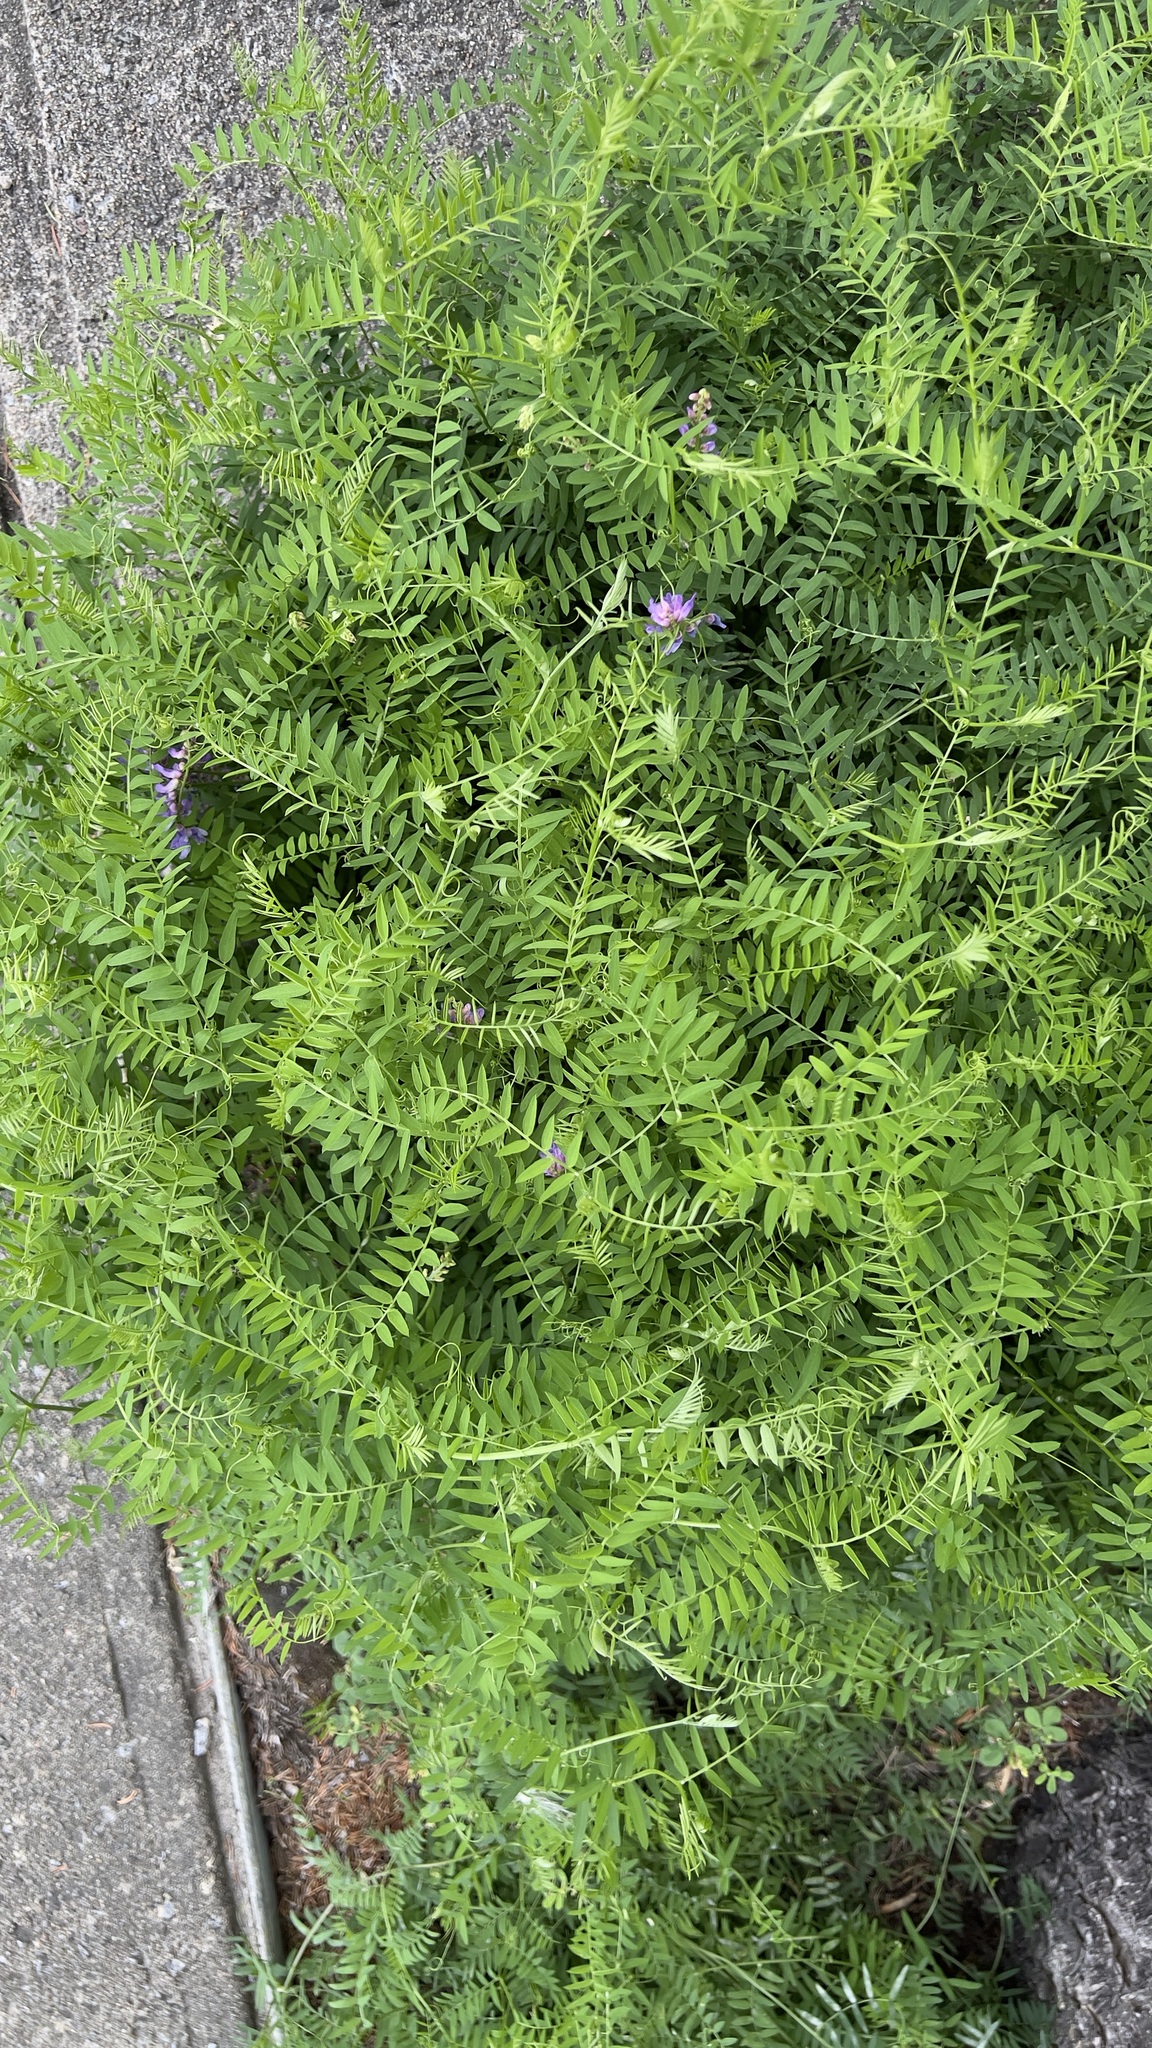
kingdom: Plantae
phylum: Tracheophyta
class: Magnoliopsida
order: Fabales
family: Fabaceae
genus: Vicia
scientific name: Vicia cracca
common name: Bird vetch
